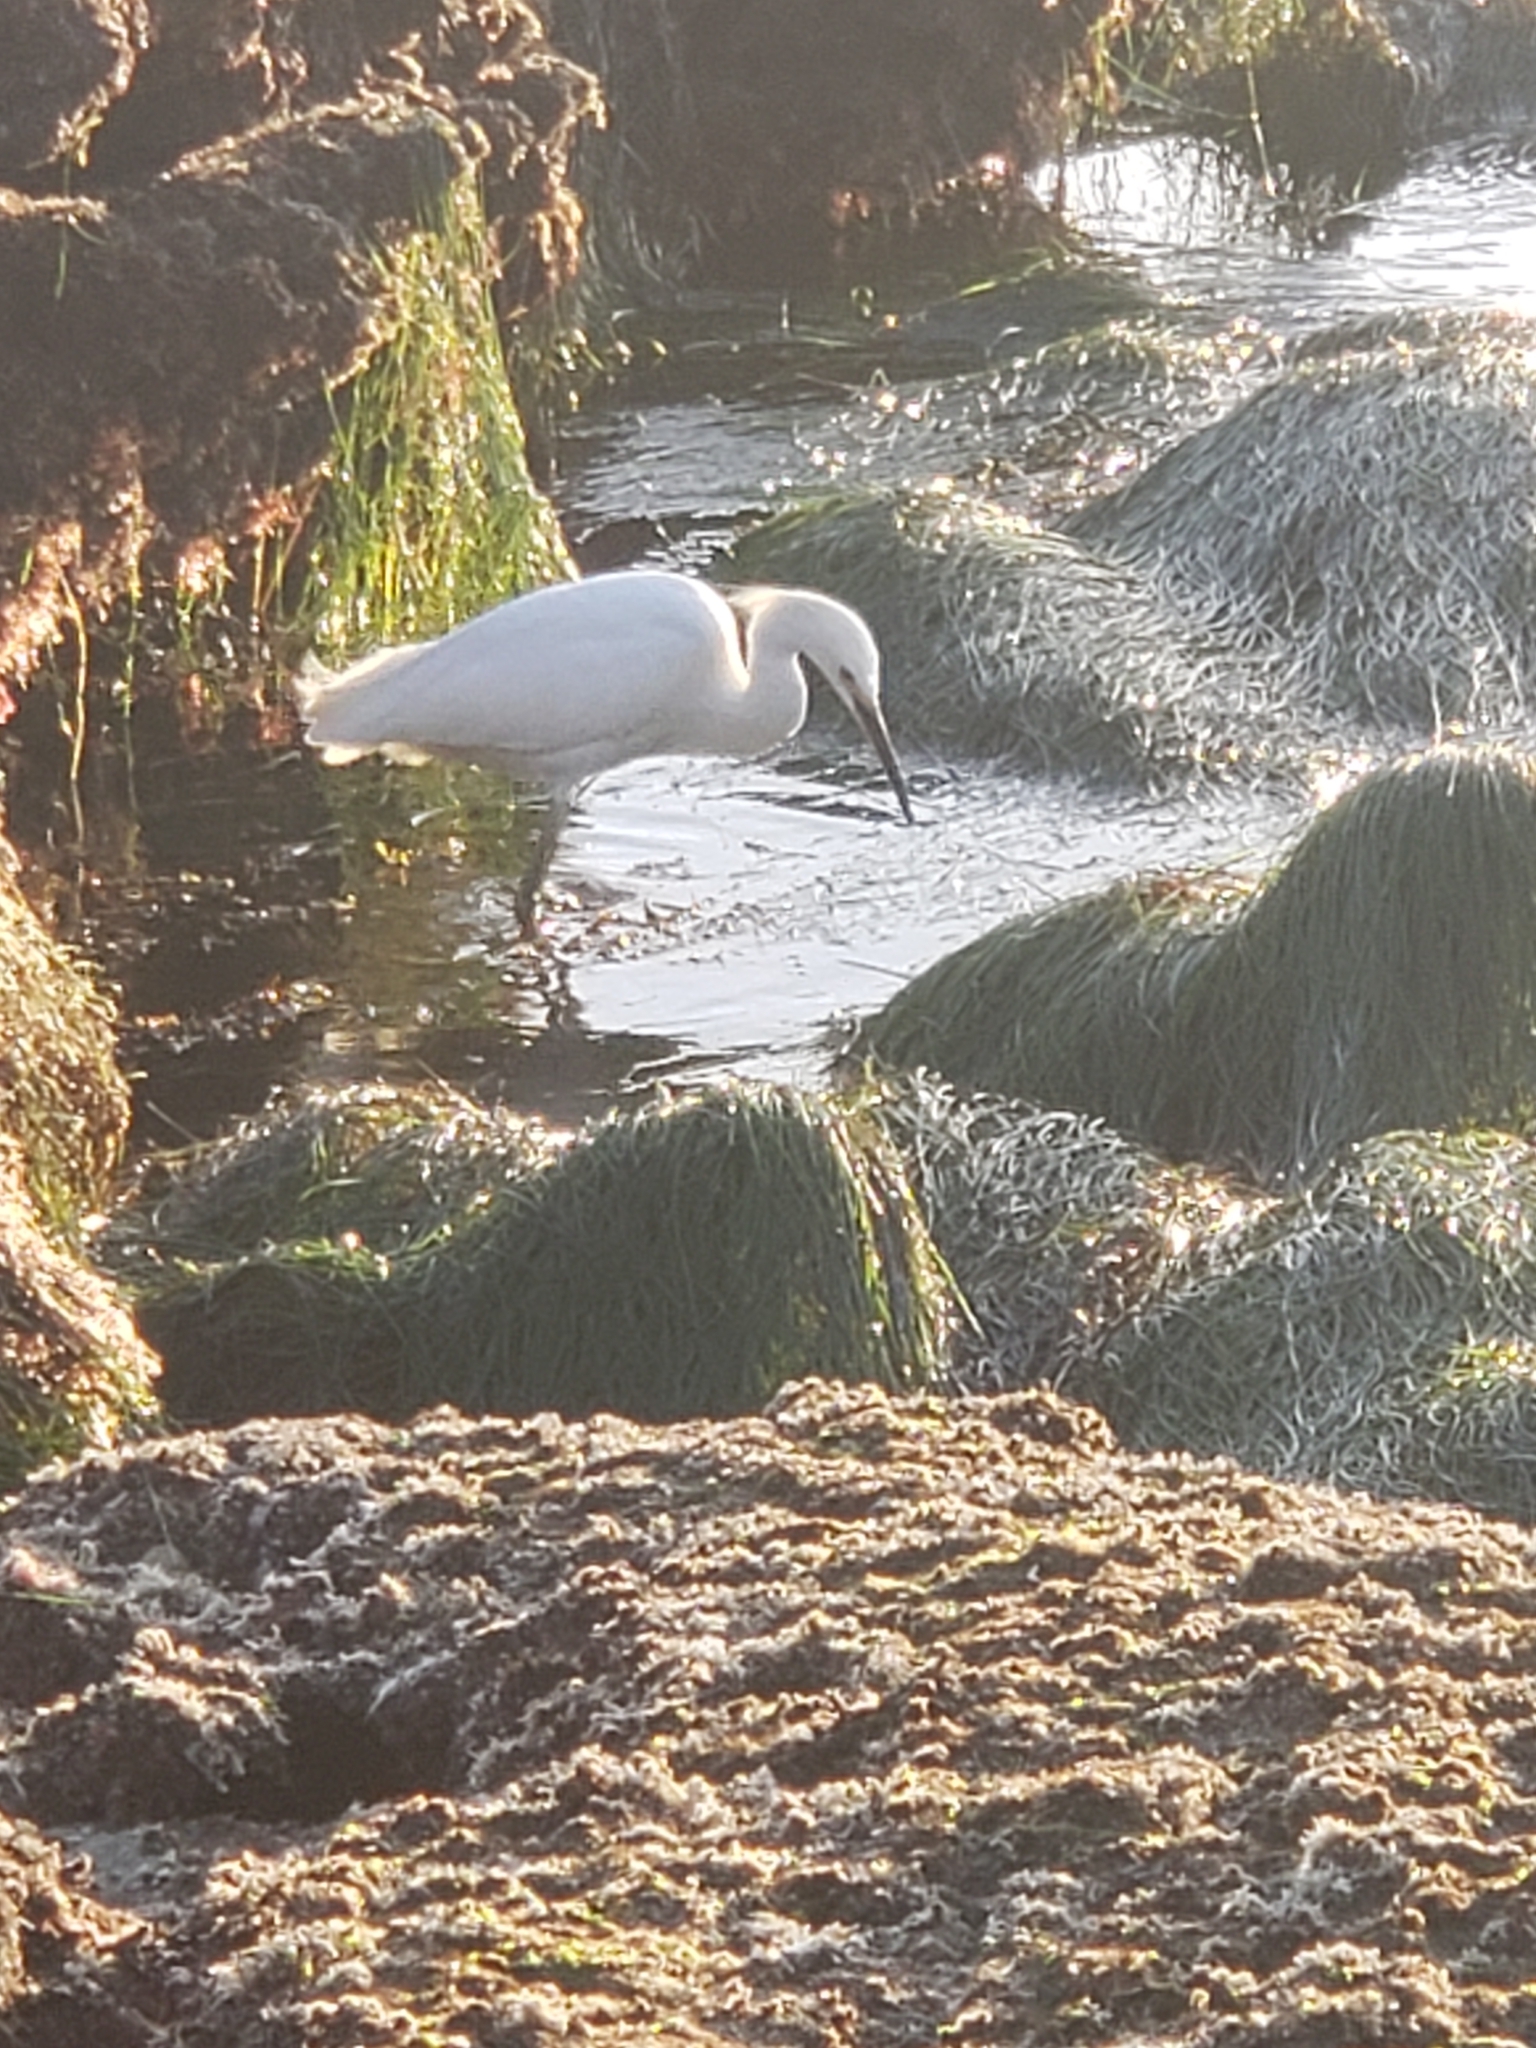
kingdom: Animalia
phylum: Chordata
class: Aves
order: Pelecaniformes
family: Ardeidae
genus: Egretta
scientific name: Egretta thula
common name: Snowy egret
